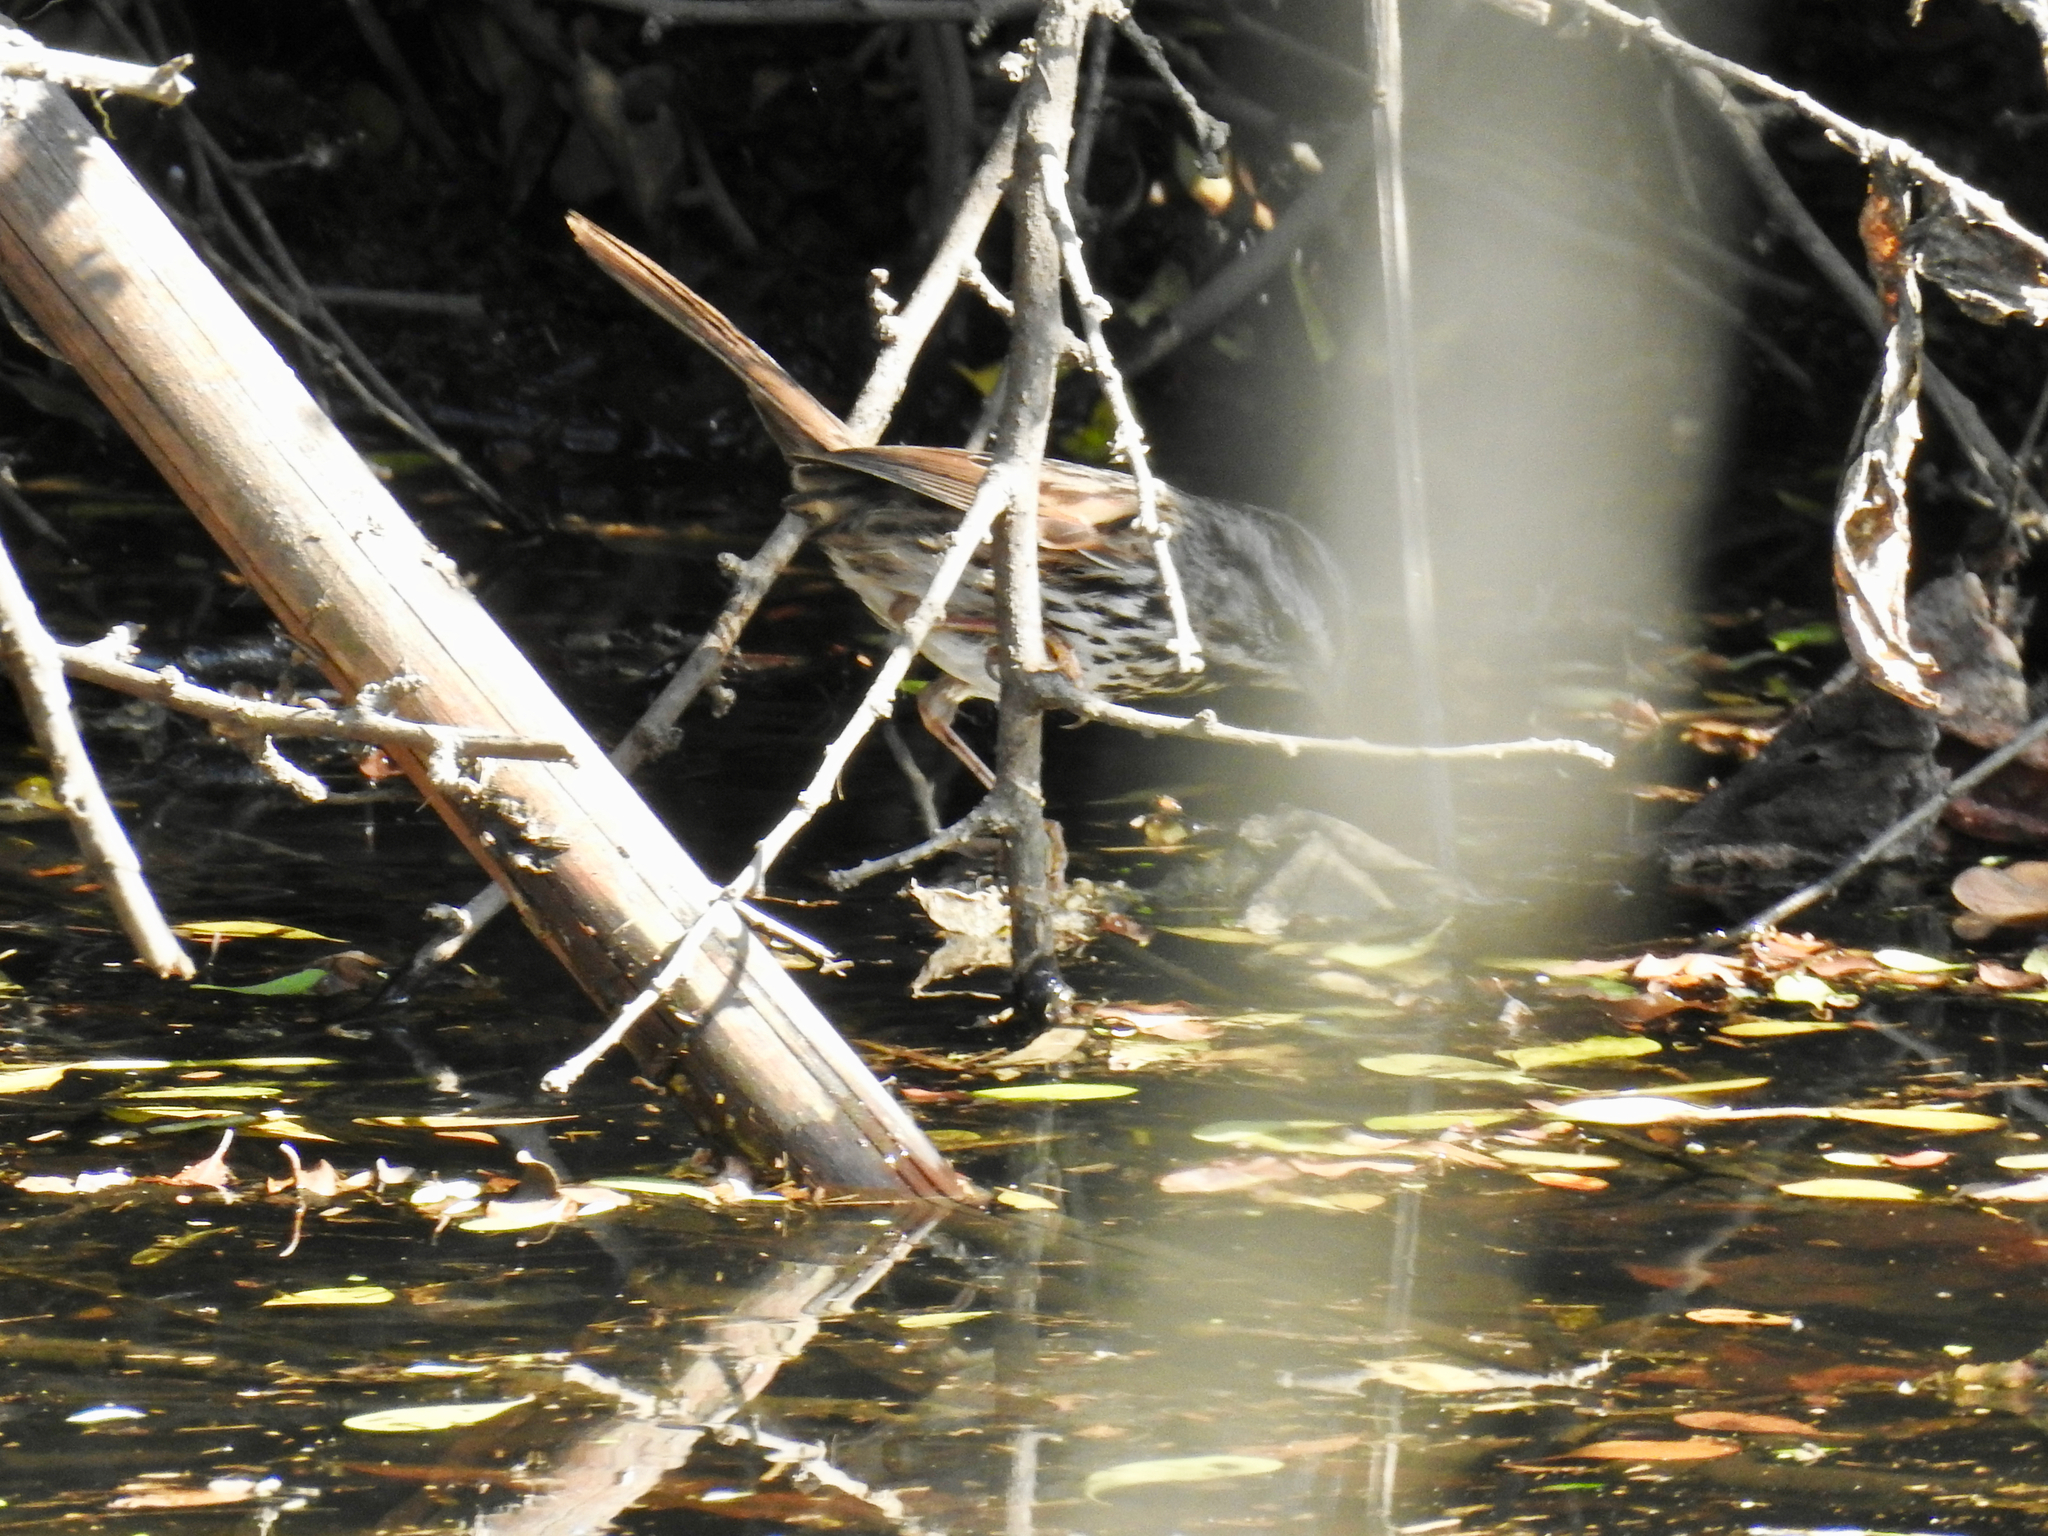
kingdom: Animalia
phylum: Chordata
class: Aves
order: Passeriformes
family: Passerellidae
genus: Melospiza
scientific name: Melospiza melodia
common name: Song sparrow
